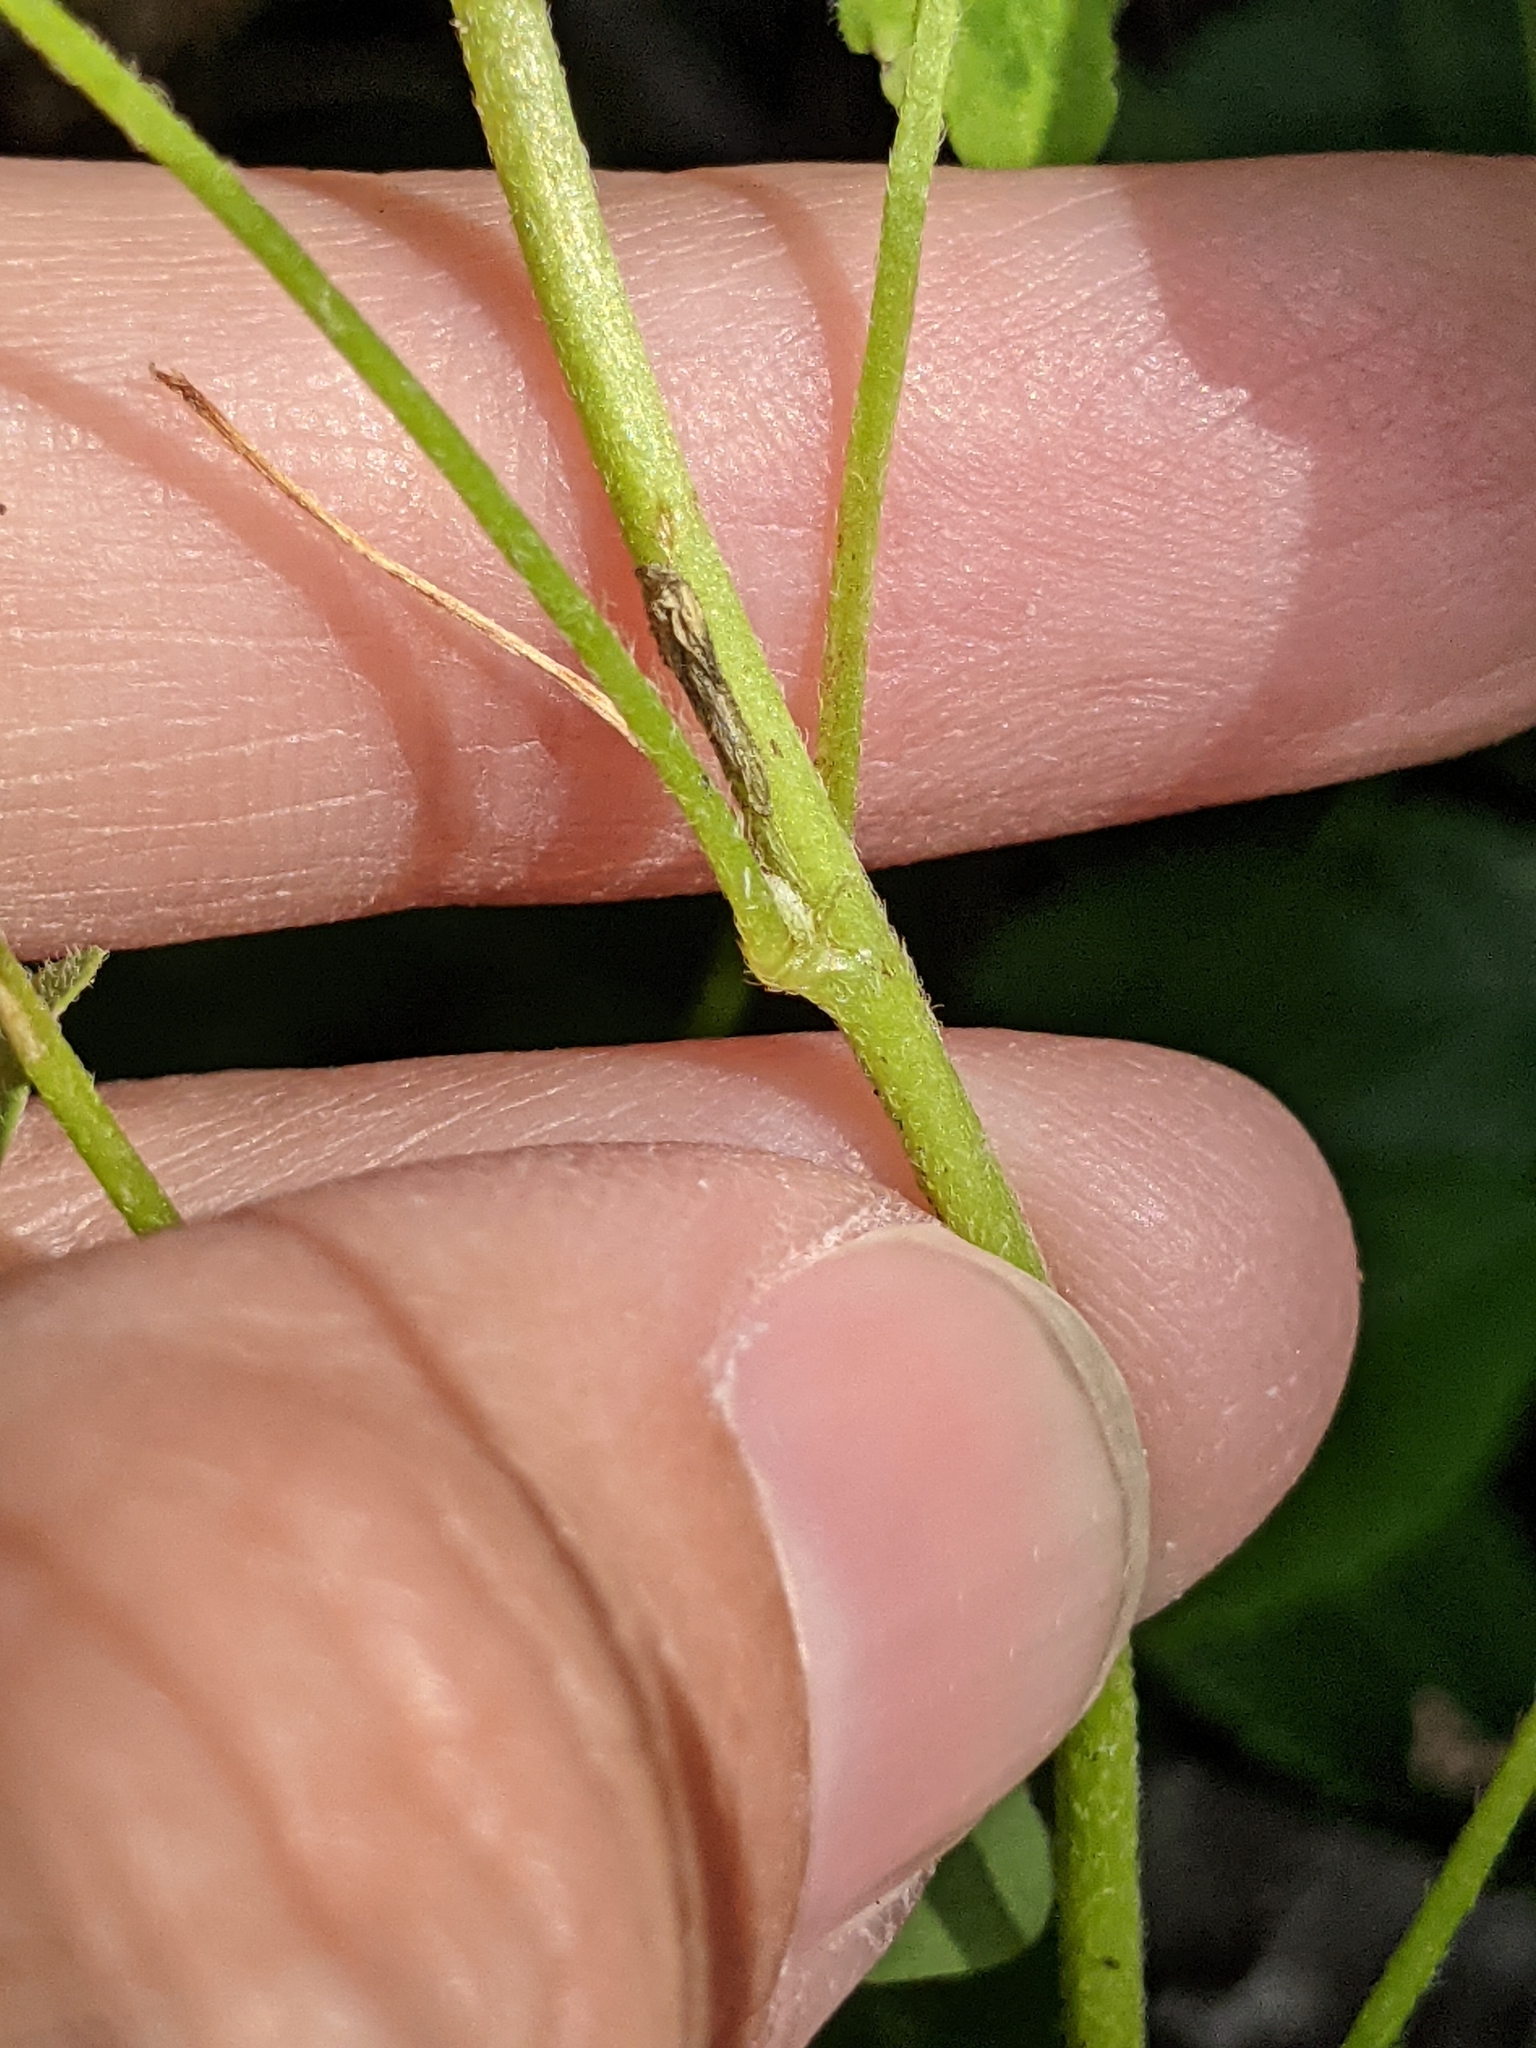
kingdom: Plantae
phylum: Tracheophyta
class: Magnoliopsida
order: Oxalidales
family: Oxalidaceae
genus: Oxalis
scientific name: Oxalis dillenii
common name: Sussex yellow-sorrel
